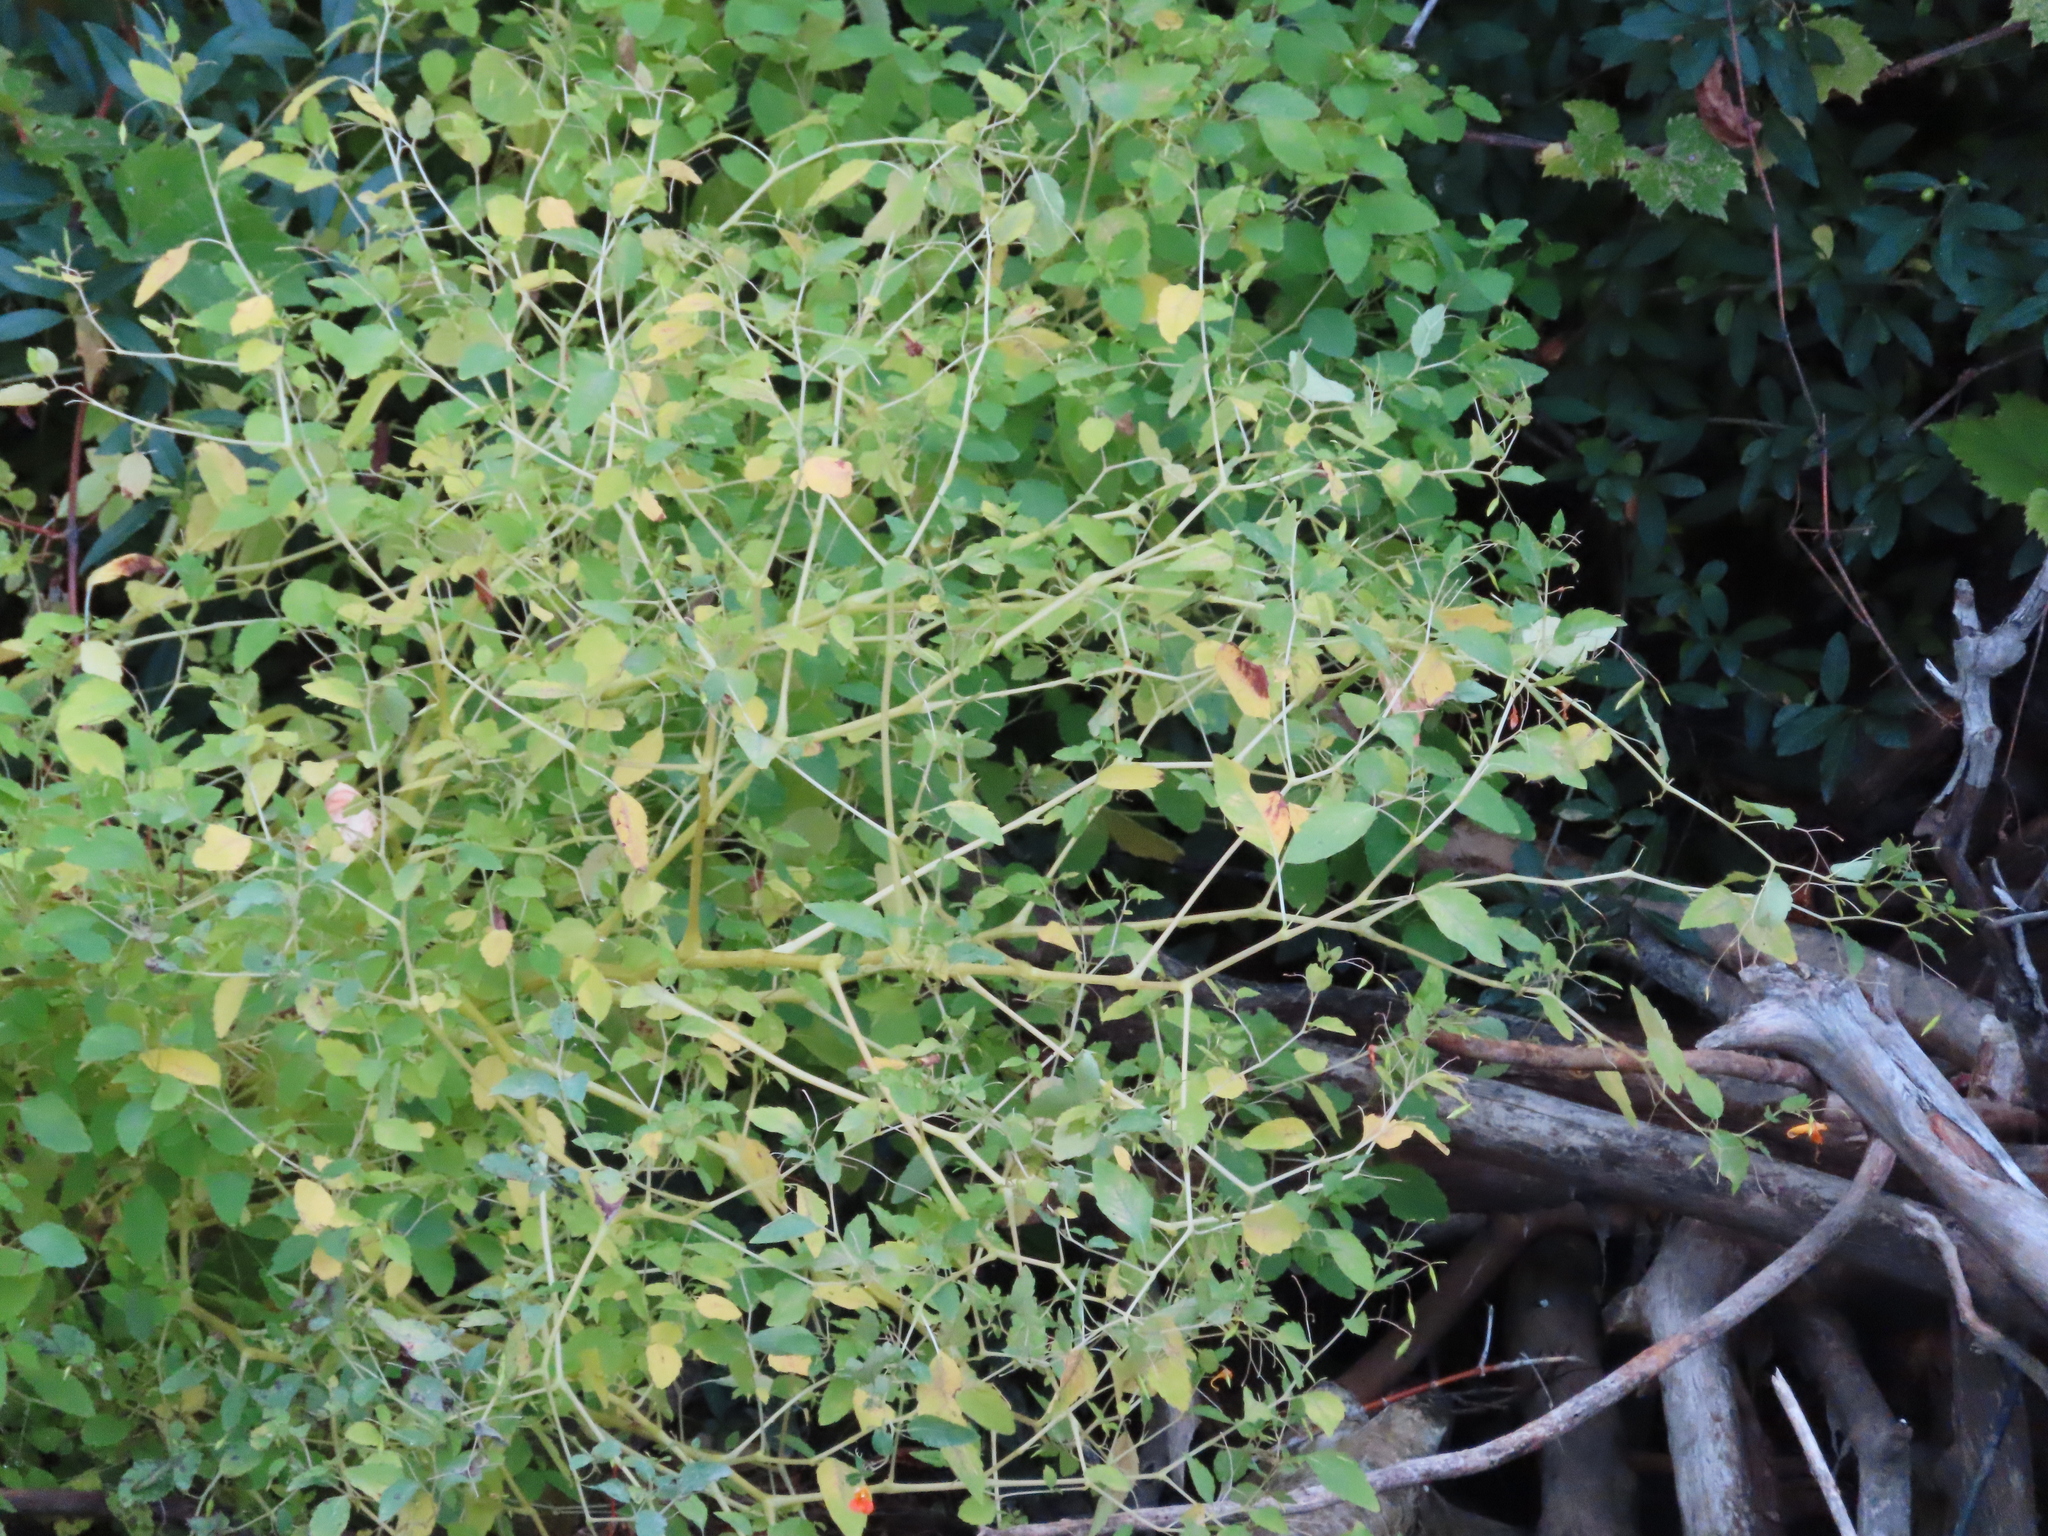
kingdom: Plantae
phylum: Tracheophyta
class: Magnoliopsida
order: Ericales
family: Balsaminaceae
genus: Impatiens
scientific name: Impatiens capensis
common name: Orange balsam
